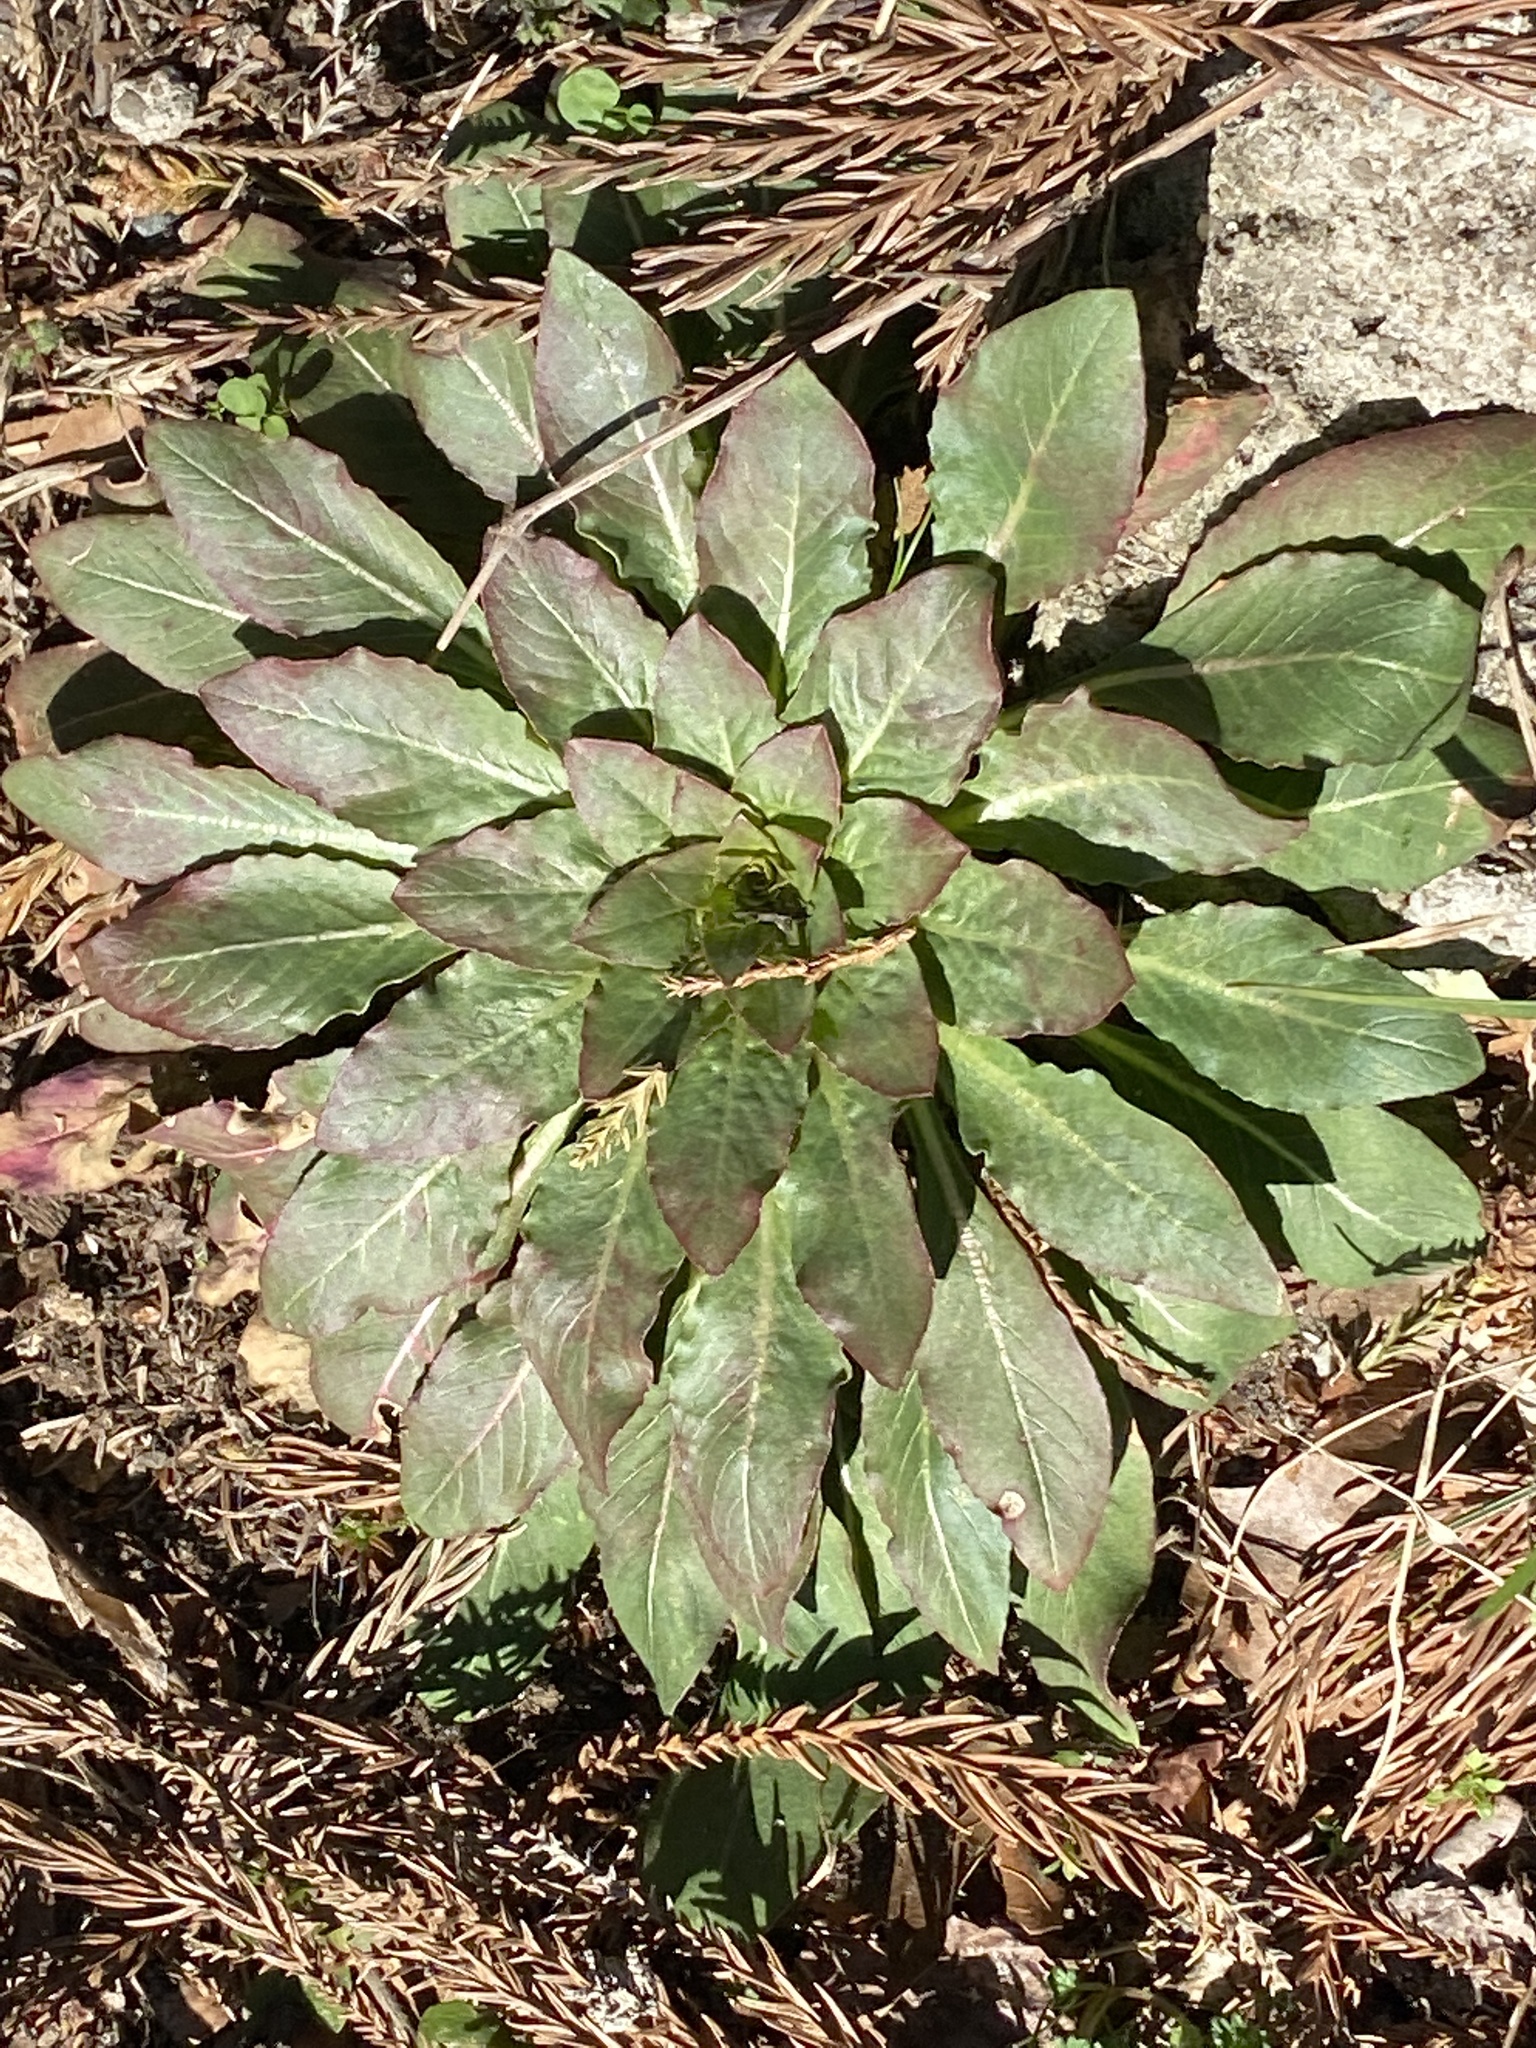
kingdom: Plantae
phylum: Tracheophyta
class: Magnoliopsida
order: Myrtales
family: Onagraceae
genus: Oenothera
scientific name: Oenothera biennis
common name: Common evening-primrose
